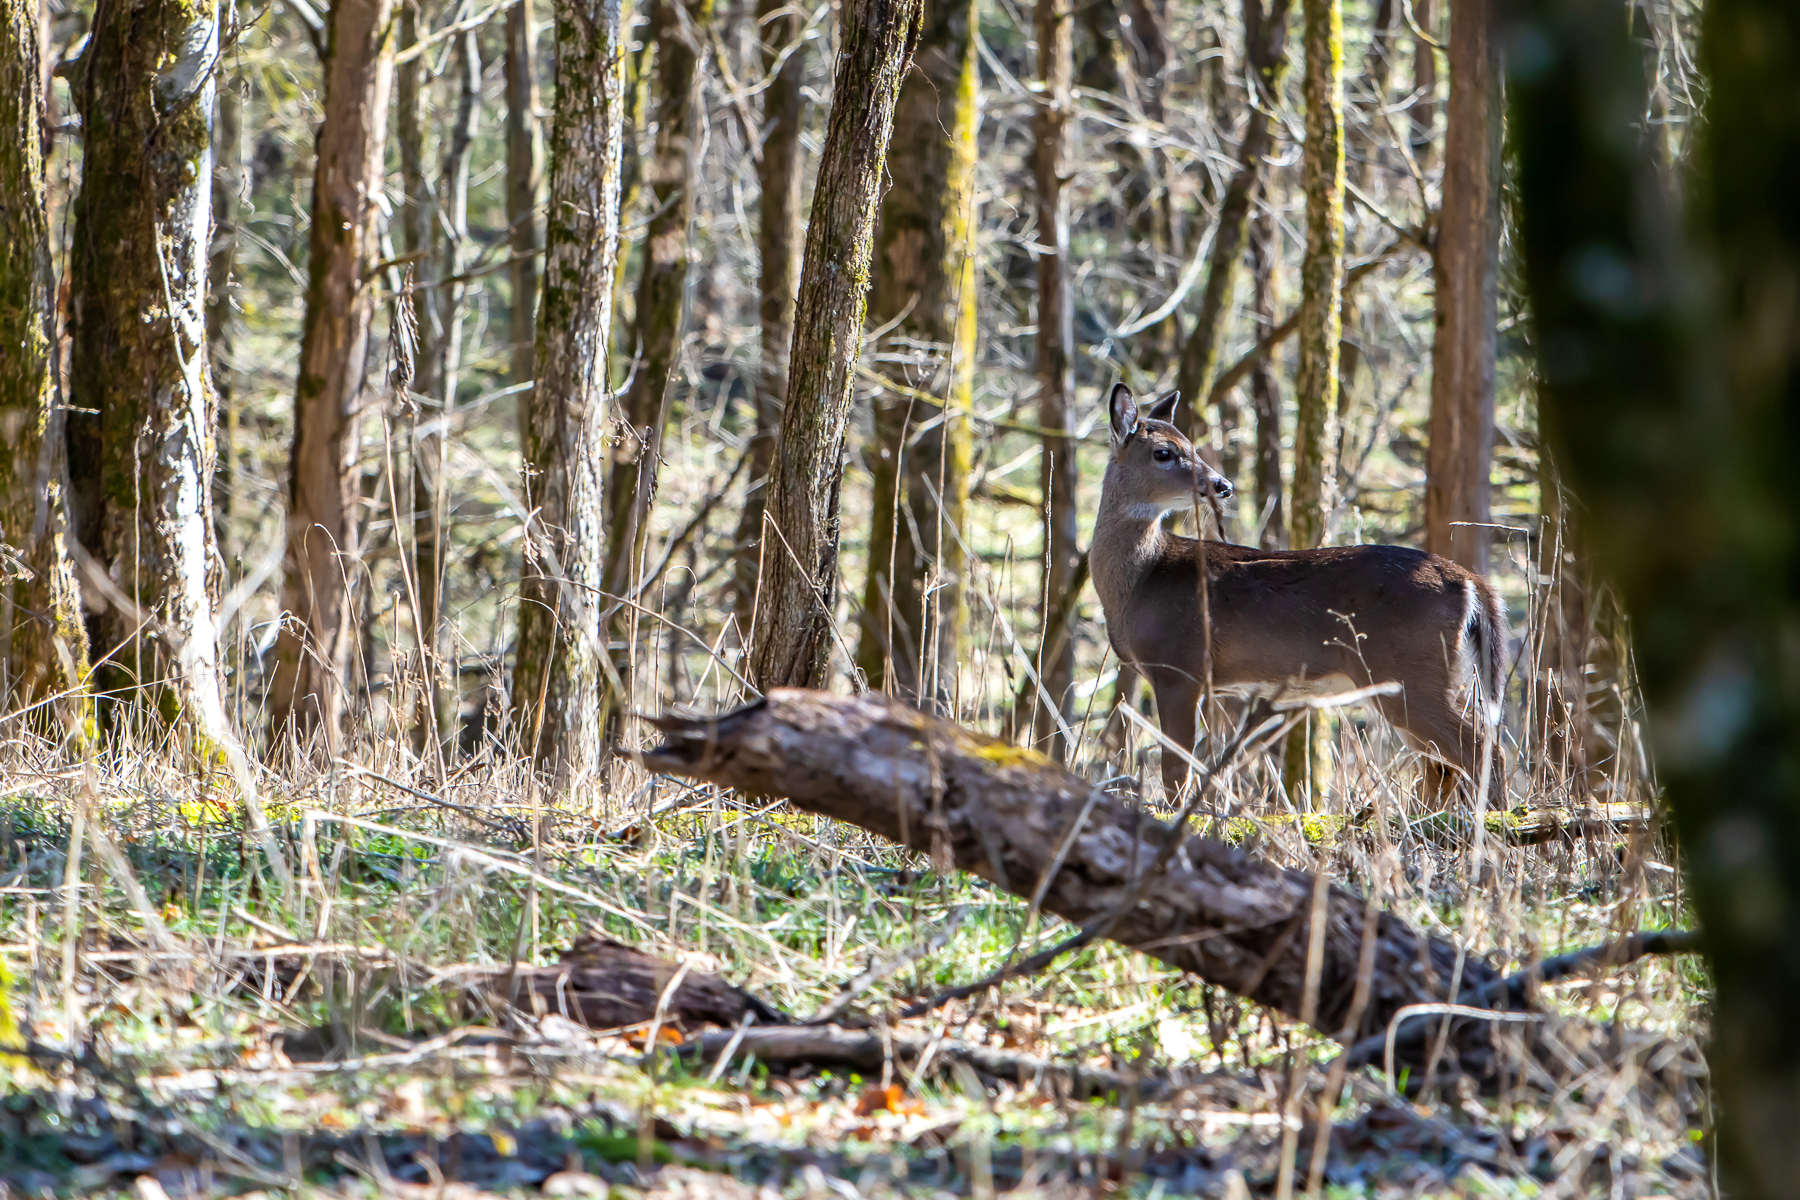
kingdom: Animalia
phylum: Chordata
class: Mammalia
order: Artiodactyla
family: Cervidae
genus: Odocoileus
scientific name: Odocoileus virginianus
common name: White-tailed deer
